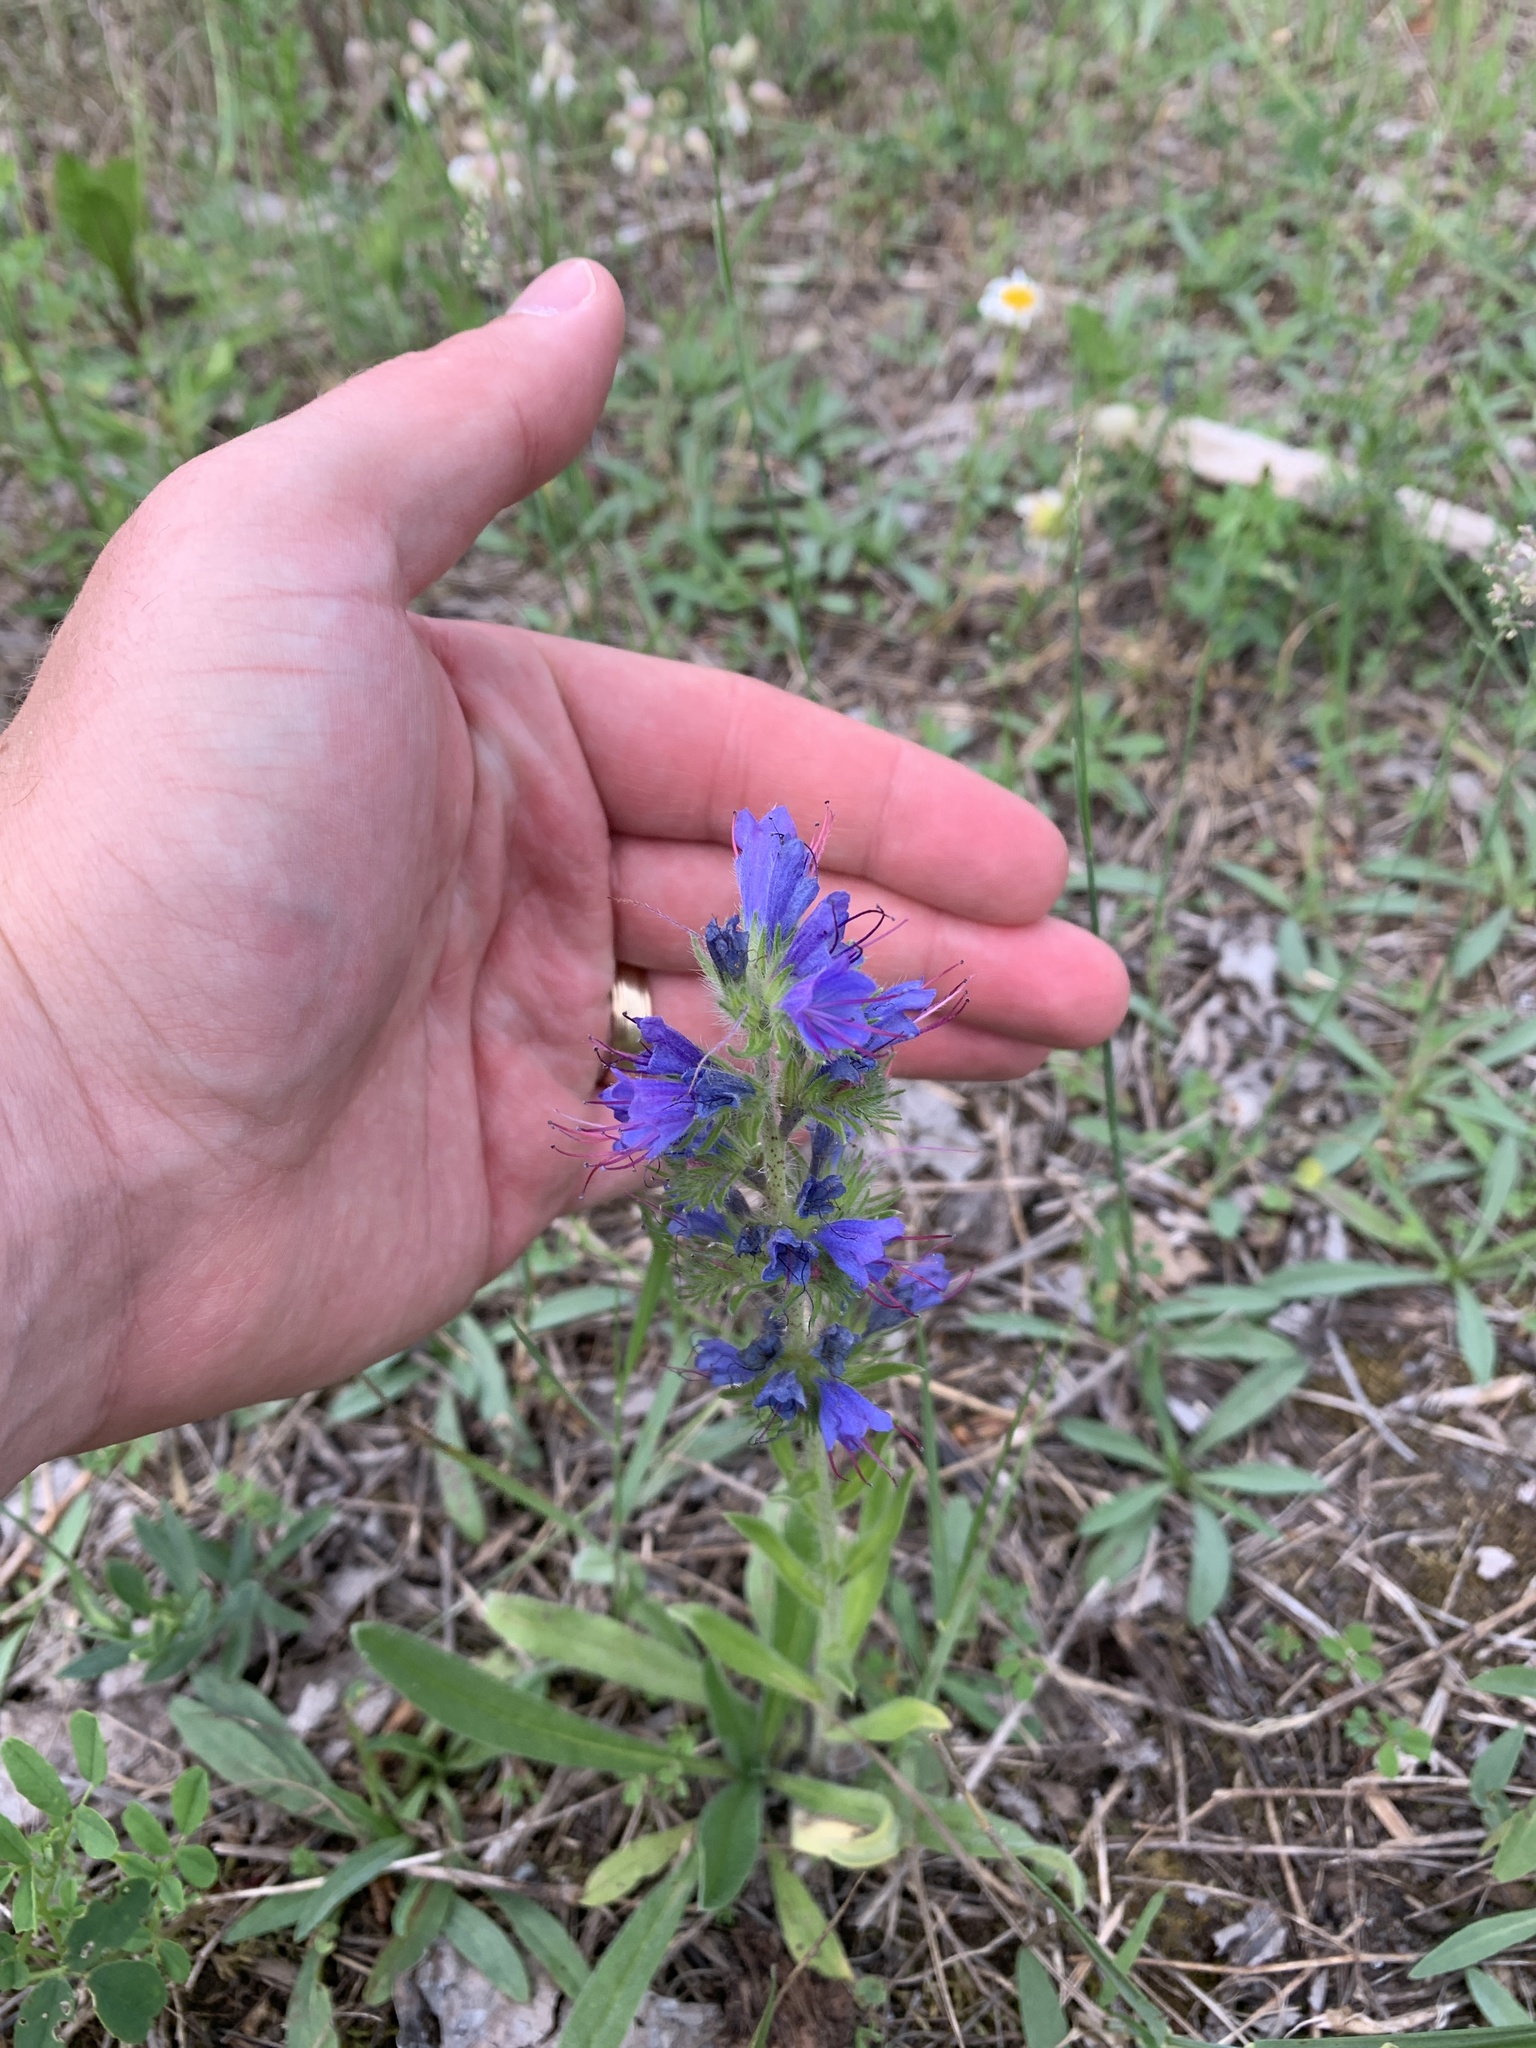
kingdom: Plantae
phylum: Tracheophyta
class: Magnoliopsida
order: Boraginales
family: Boraginaceae
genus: Echium
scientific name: Echium vulgare
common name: Common viper's bugloss
